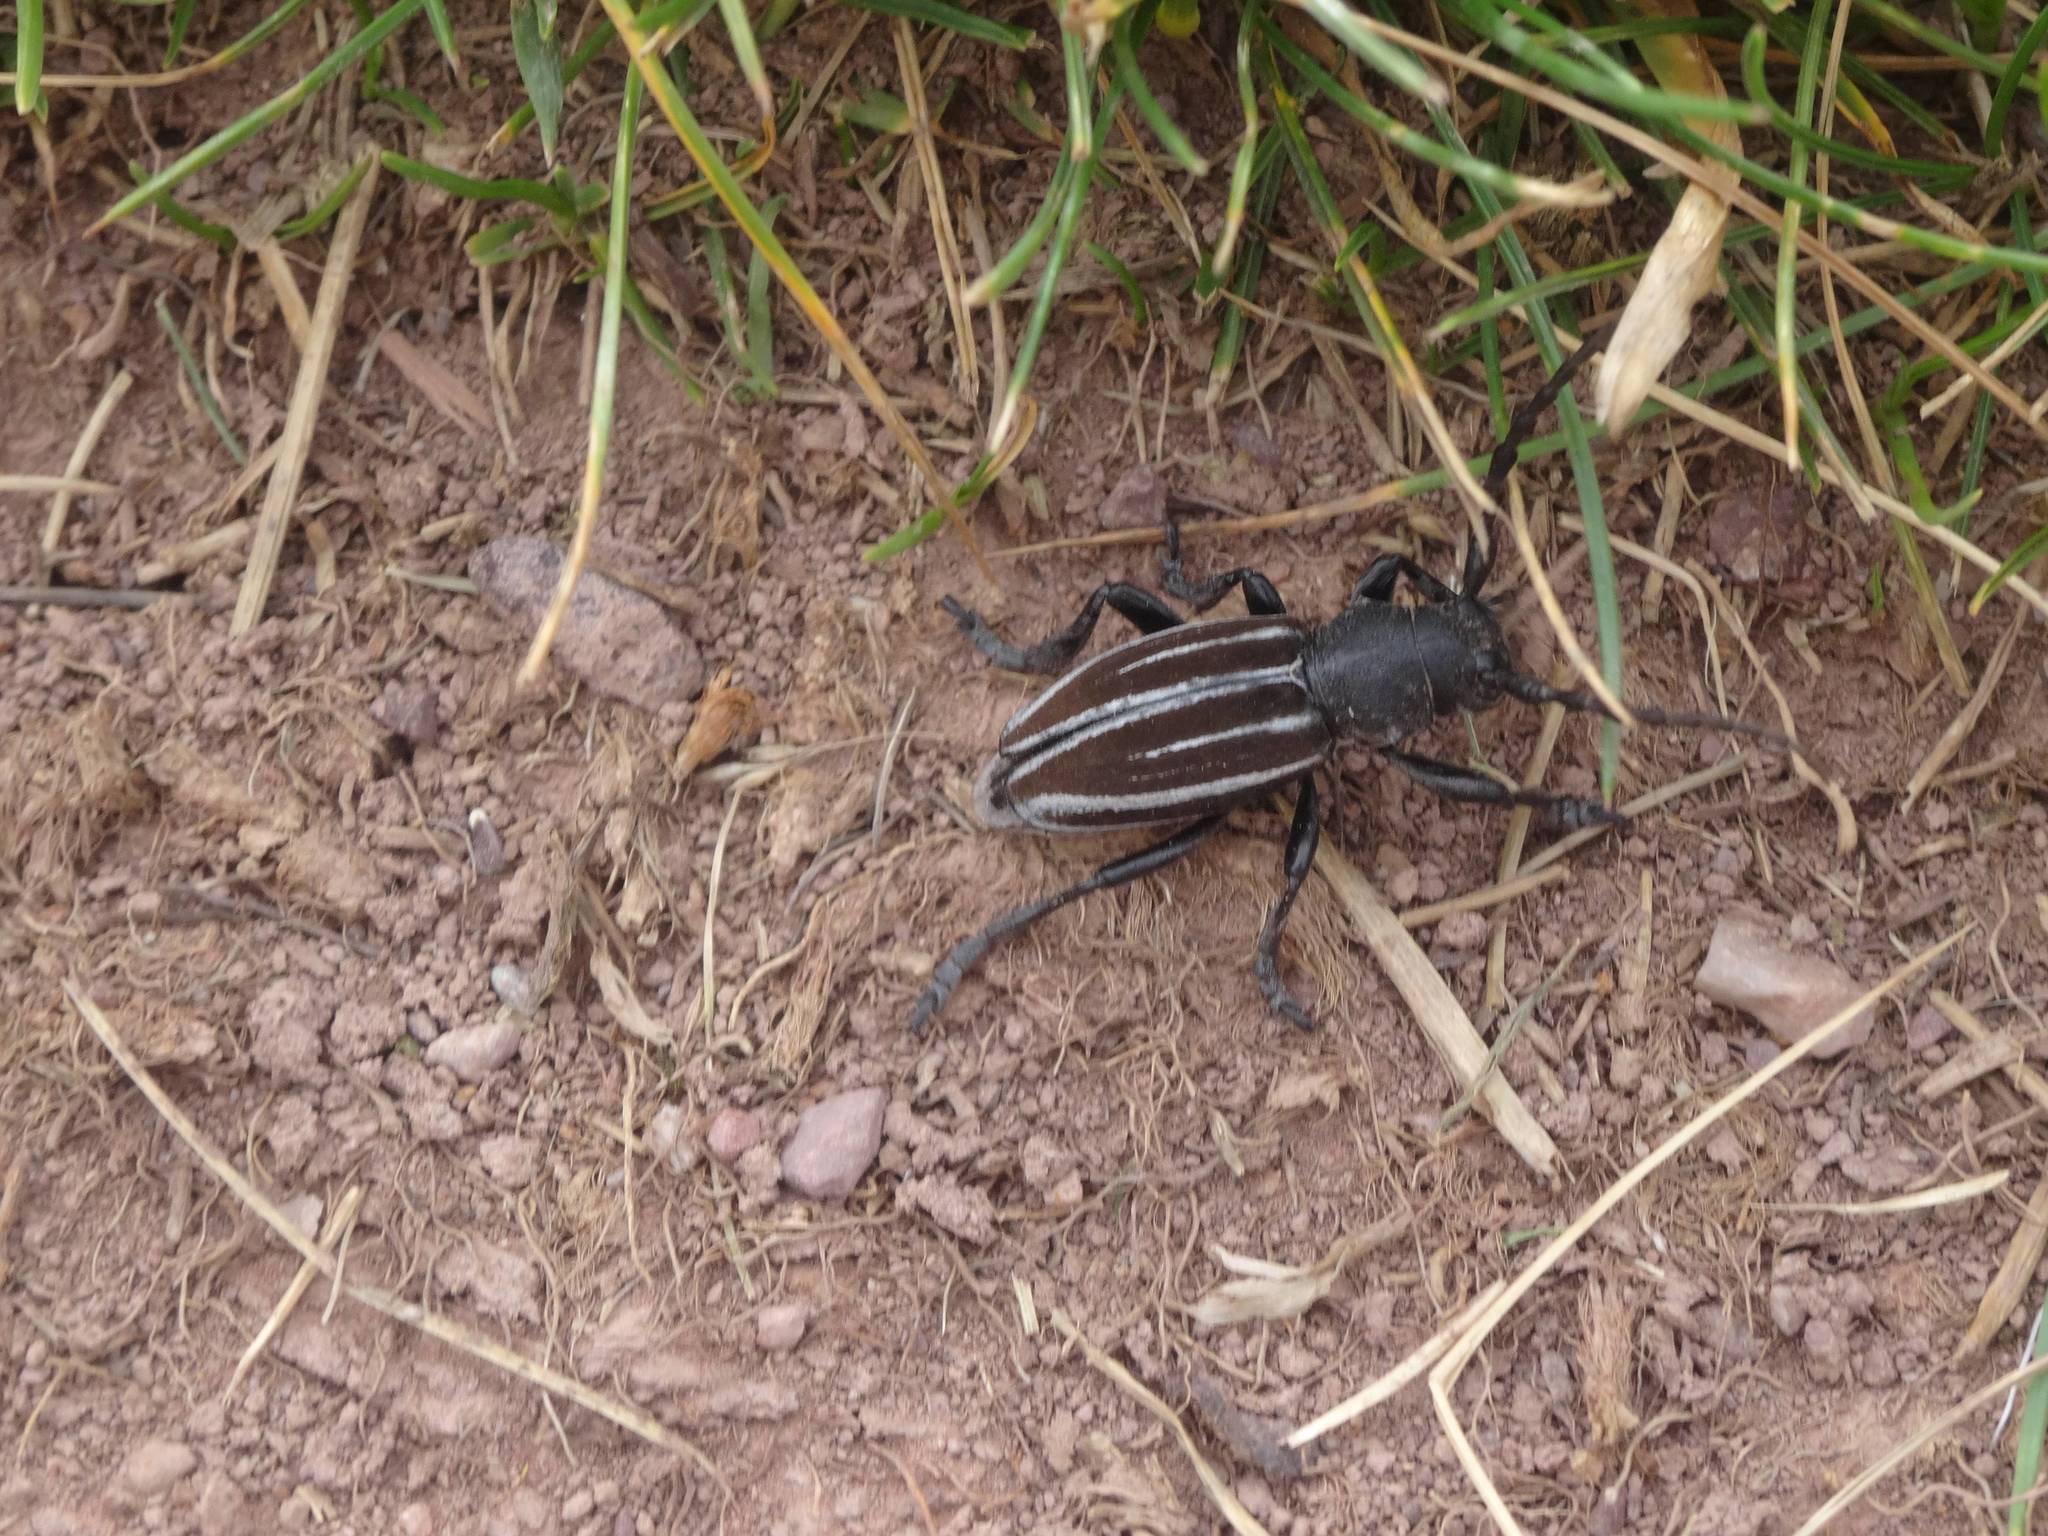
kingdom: Animalia
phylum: Arthropoda
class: Insecta
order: Coleoptera
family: Cerambycidae
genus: Iberodorcadion
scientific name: Iberodorcadion fuliginator
